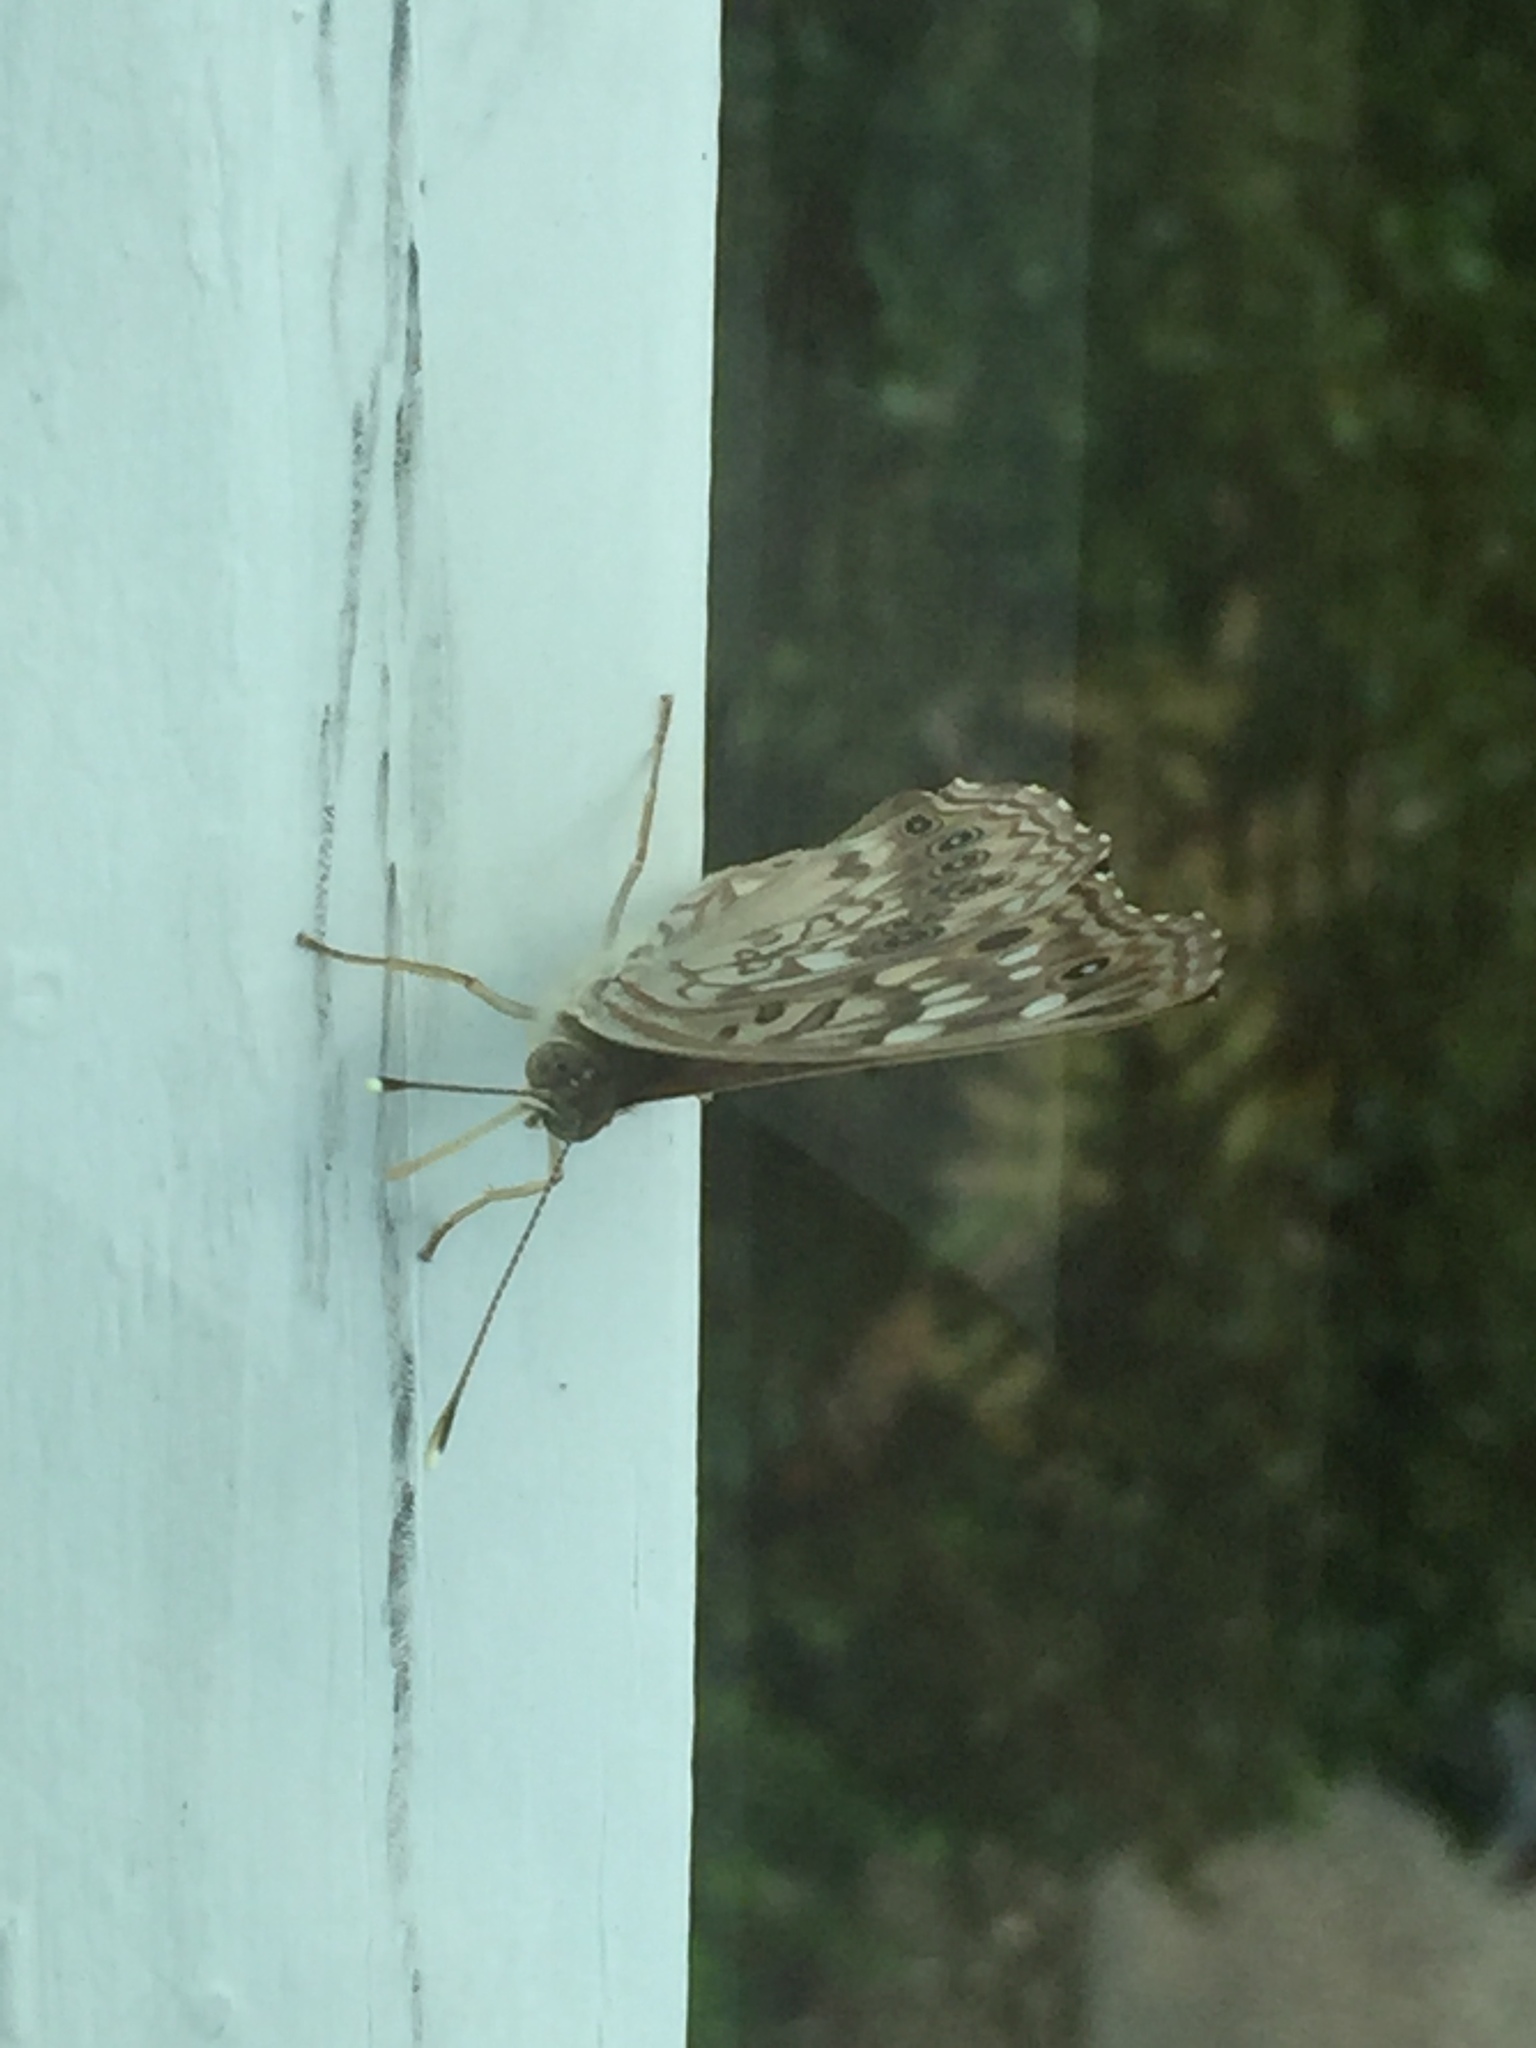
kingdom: Animalia
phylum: Arthropoda
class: Insecta
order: Lepidoptera
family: Nymphalidae
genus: Asterocampa
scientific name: Asterocampa celtis
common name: Hackberry emperor
